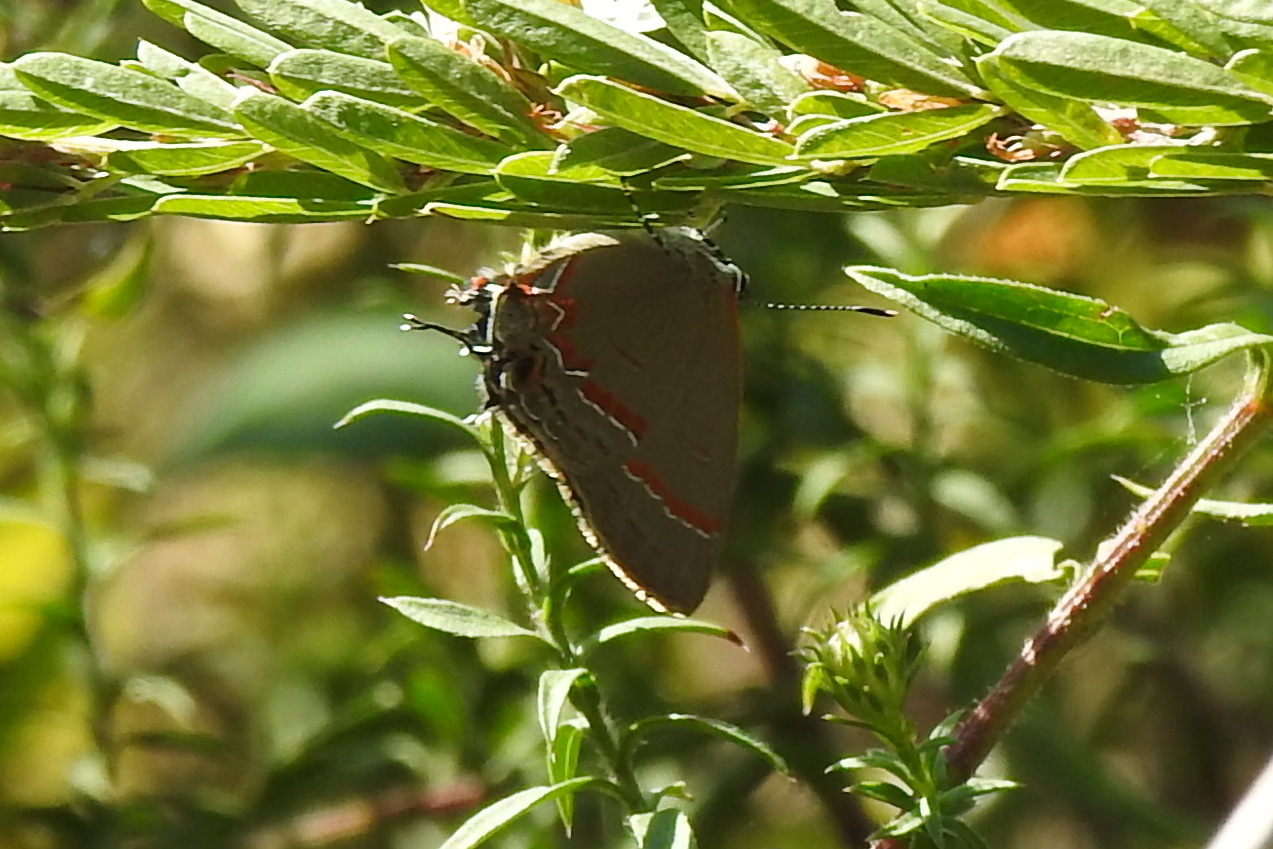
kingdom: Animalia
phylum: Arthropoda
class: Insecta
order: Lepidoptera
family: Lycaenidae
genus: Calycopis
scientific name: Calycopis cecrops
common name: Red-banded hairstreak
